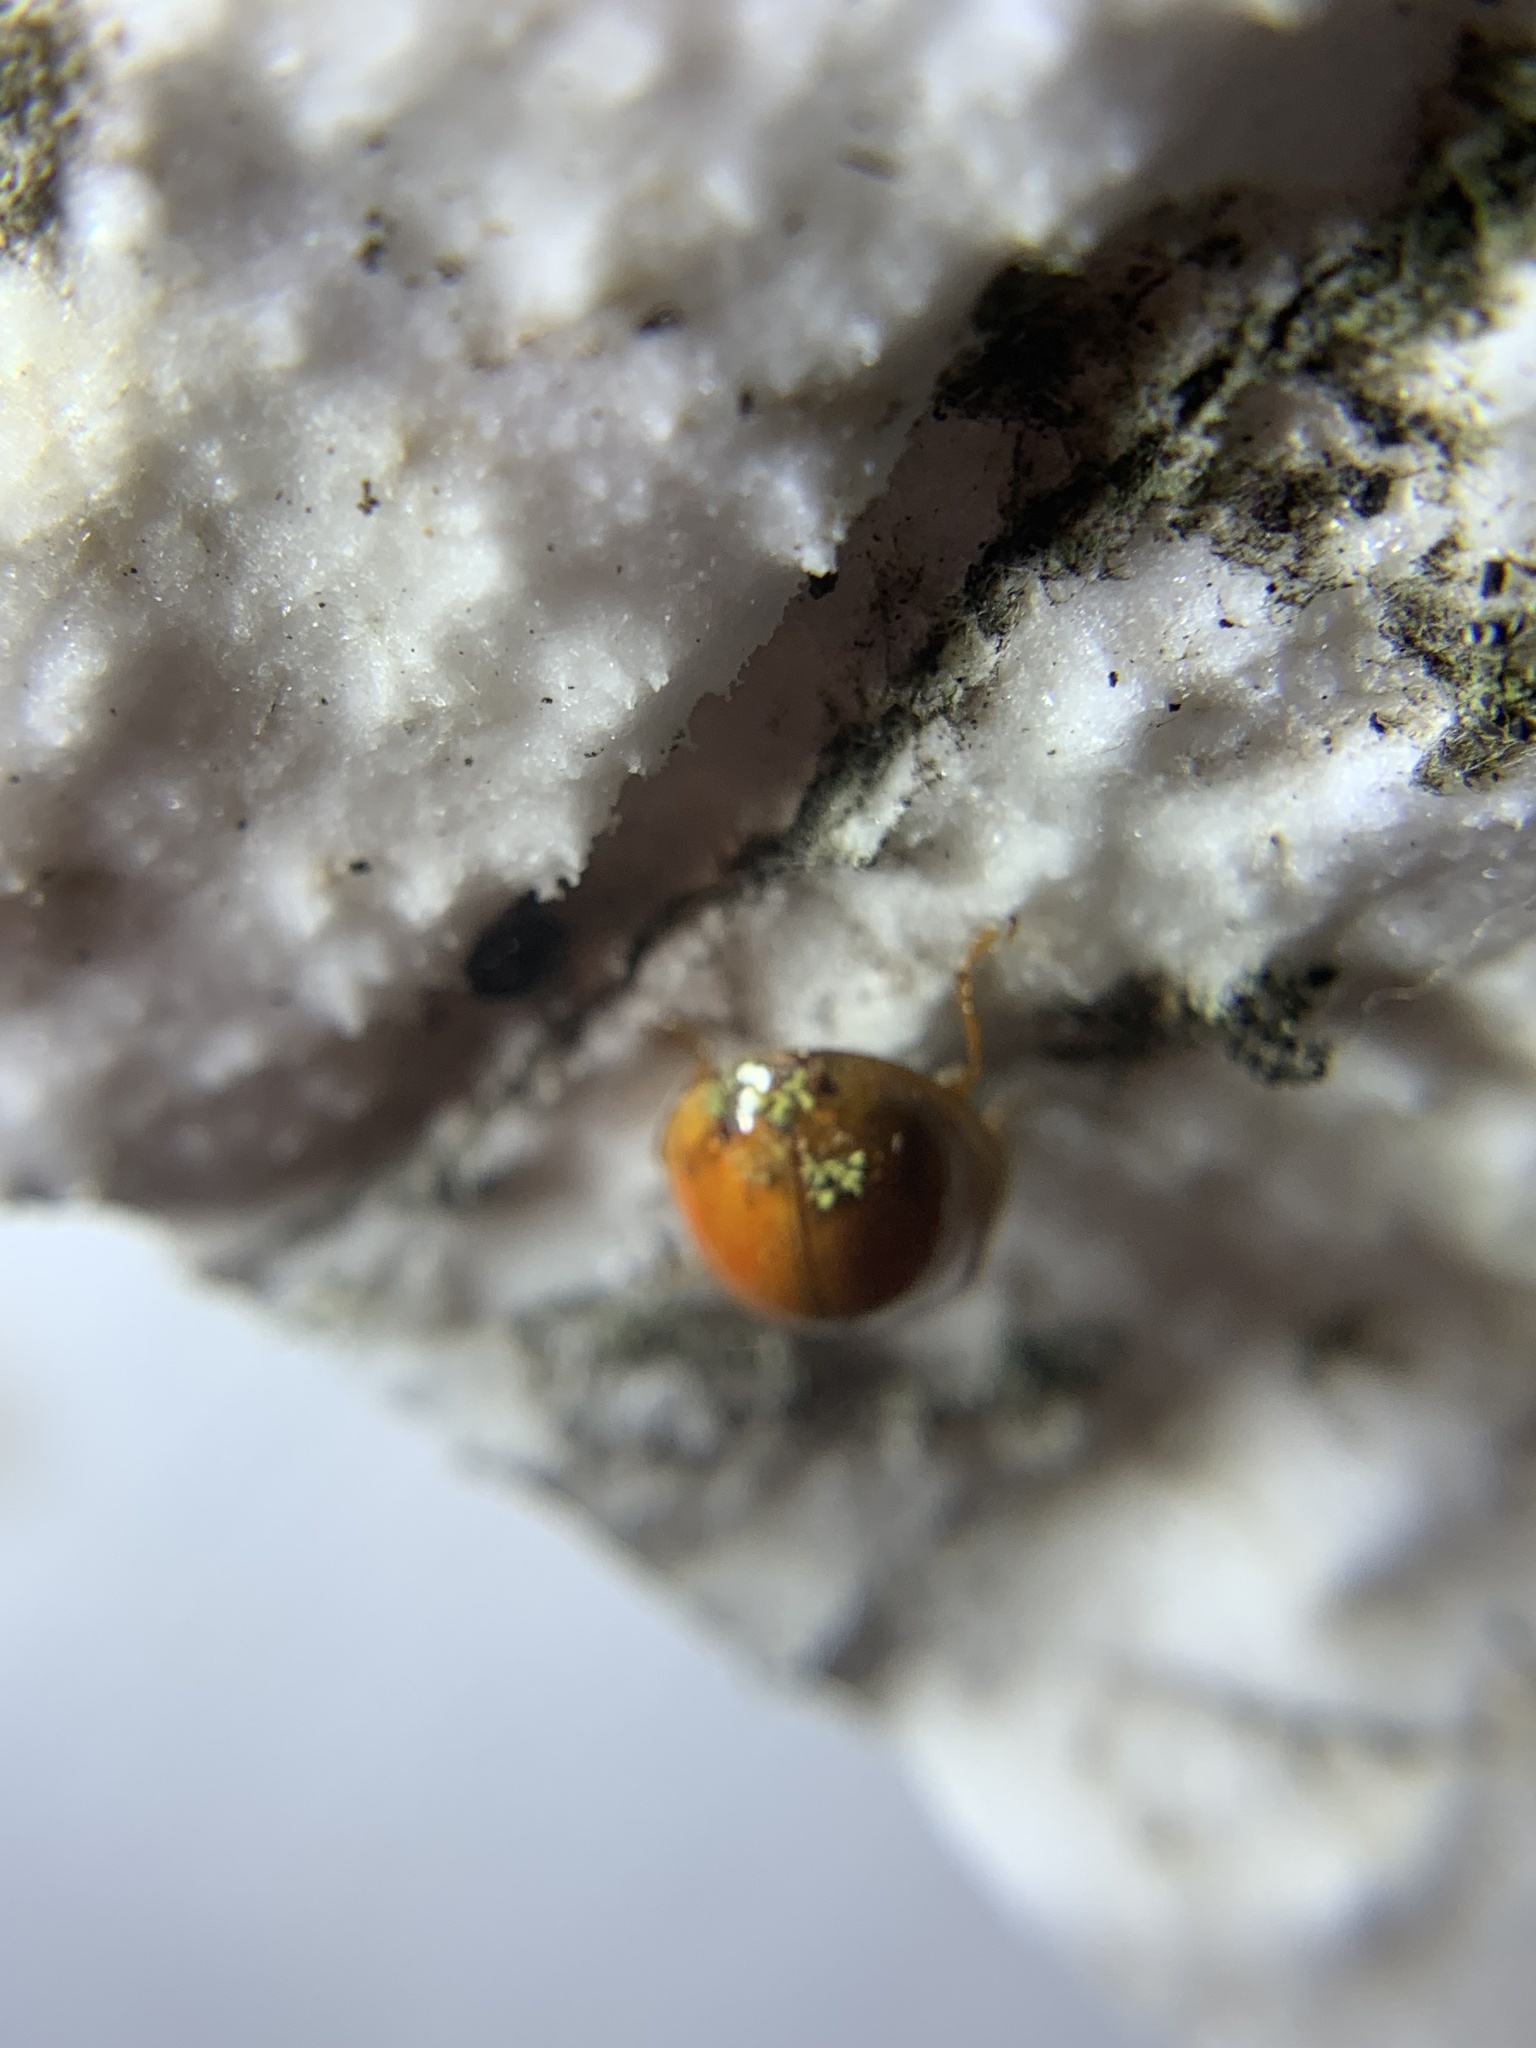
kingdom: Fungi
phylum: Ascomycota
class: Laboulbeniomycetes
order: Laboulbeniales
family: Laboulbeniaceae
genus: Hesperomyces
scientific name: Hesperomyces harmoniae
